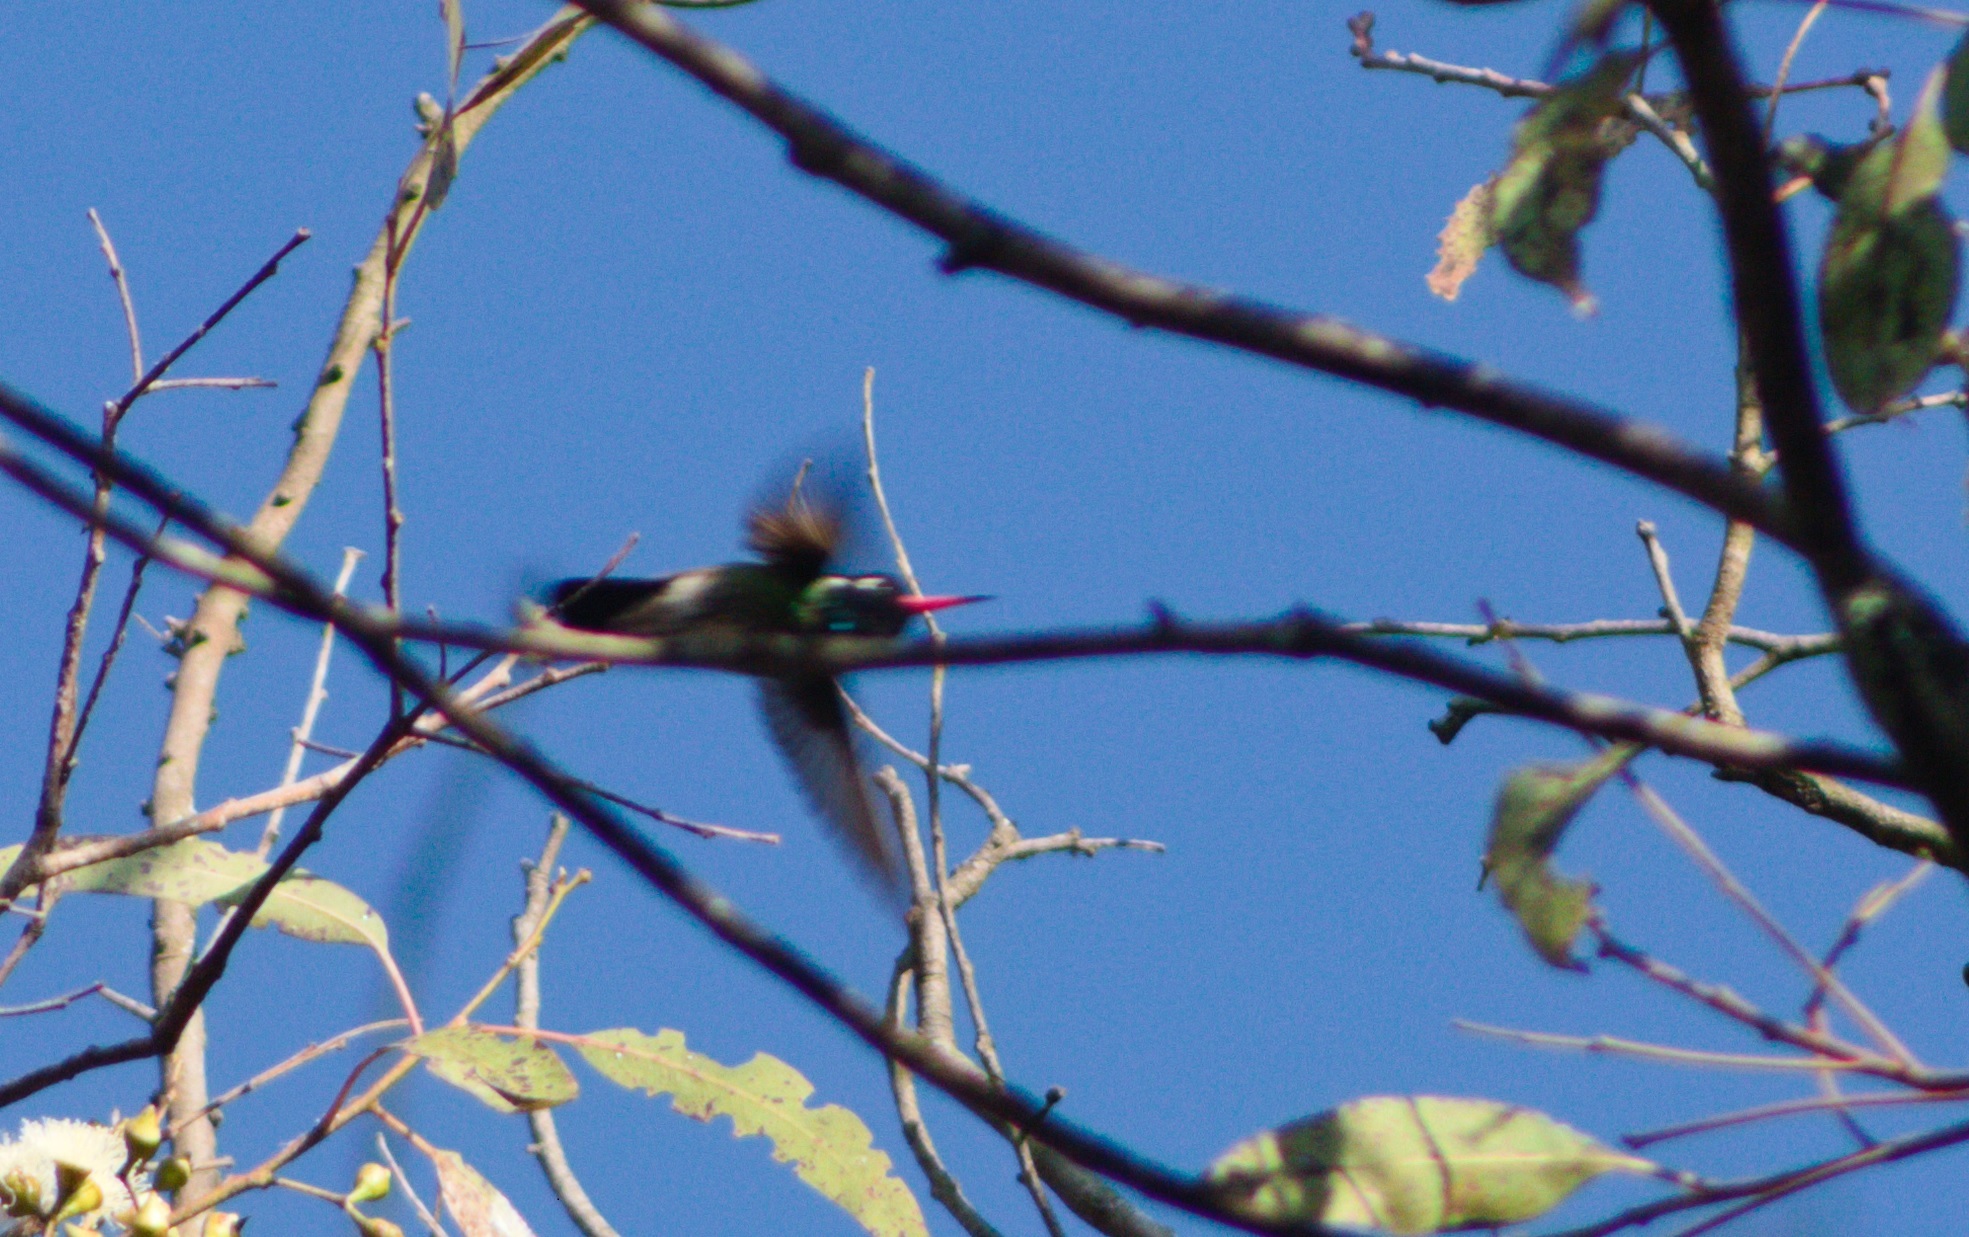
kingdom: Animalia
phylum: Chordata
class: Aves
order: Apodiformes
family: Trochilidae
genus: Basilinna
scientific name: Basilinna leucotis
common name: White-eared hummingbird
